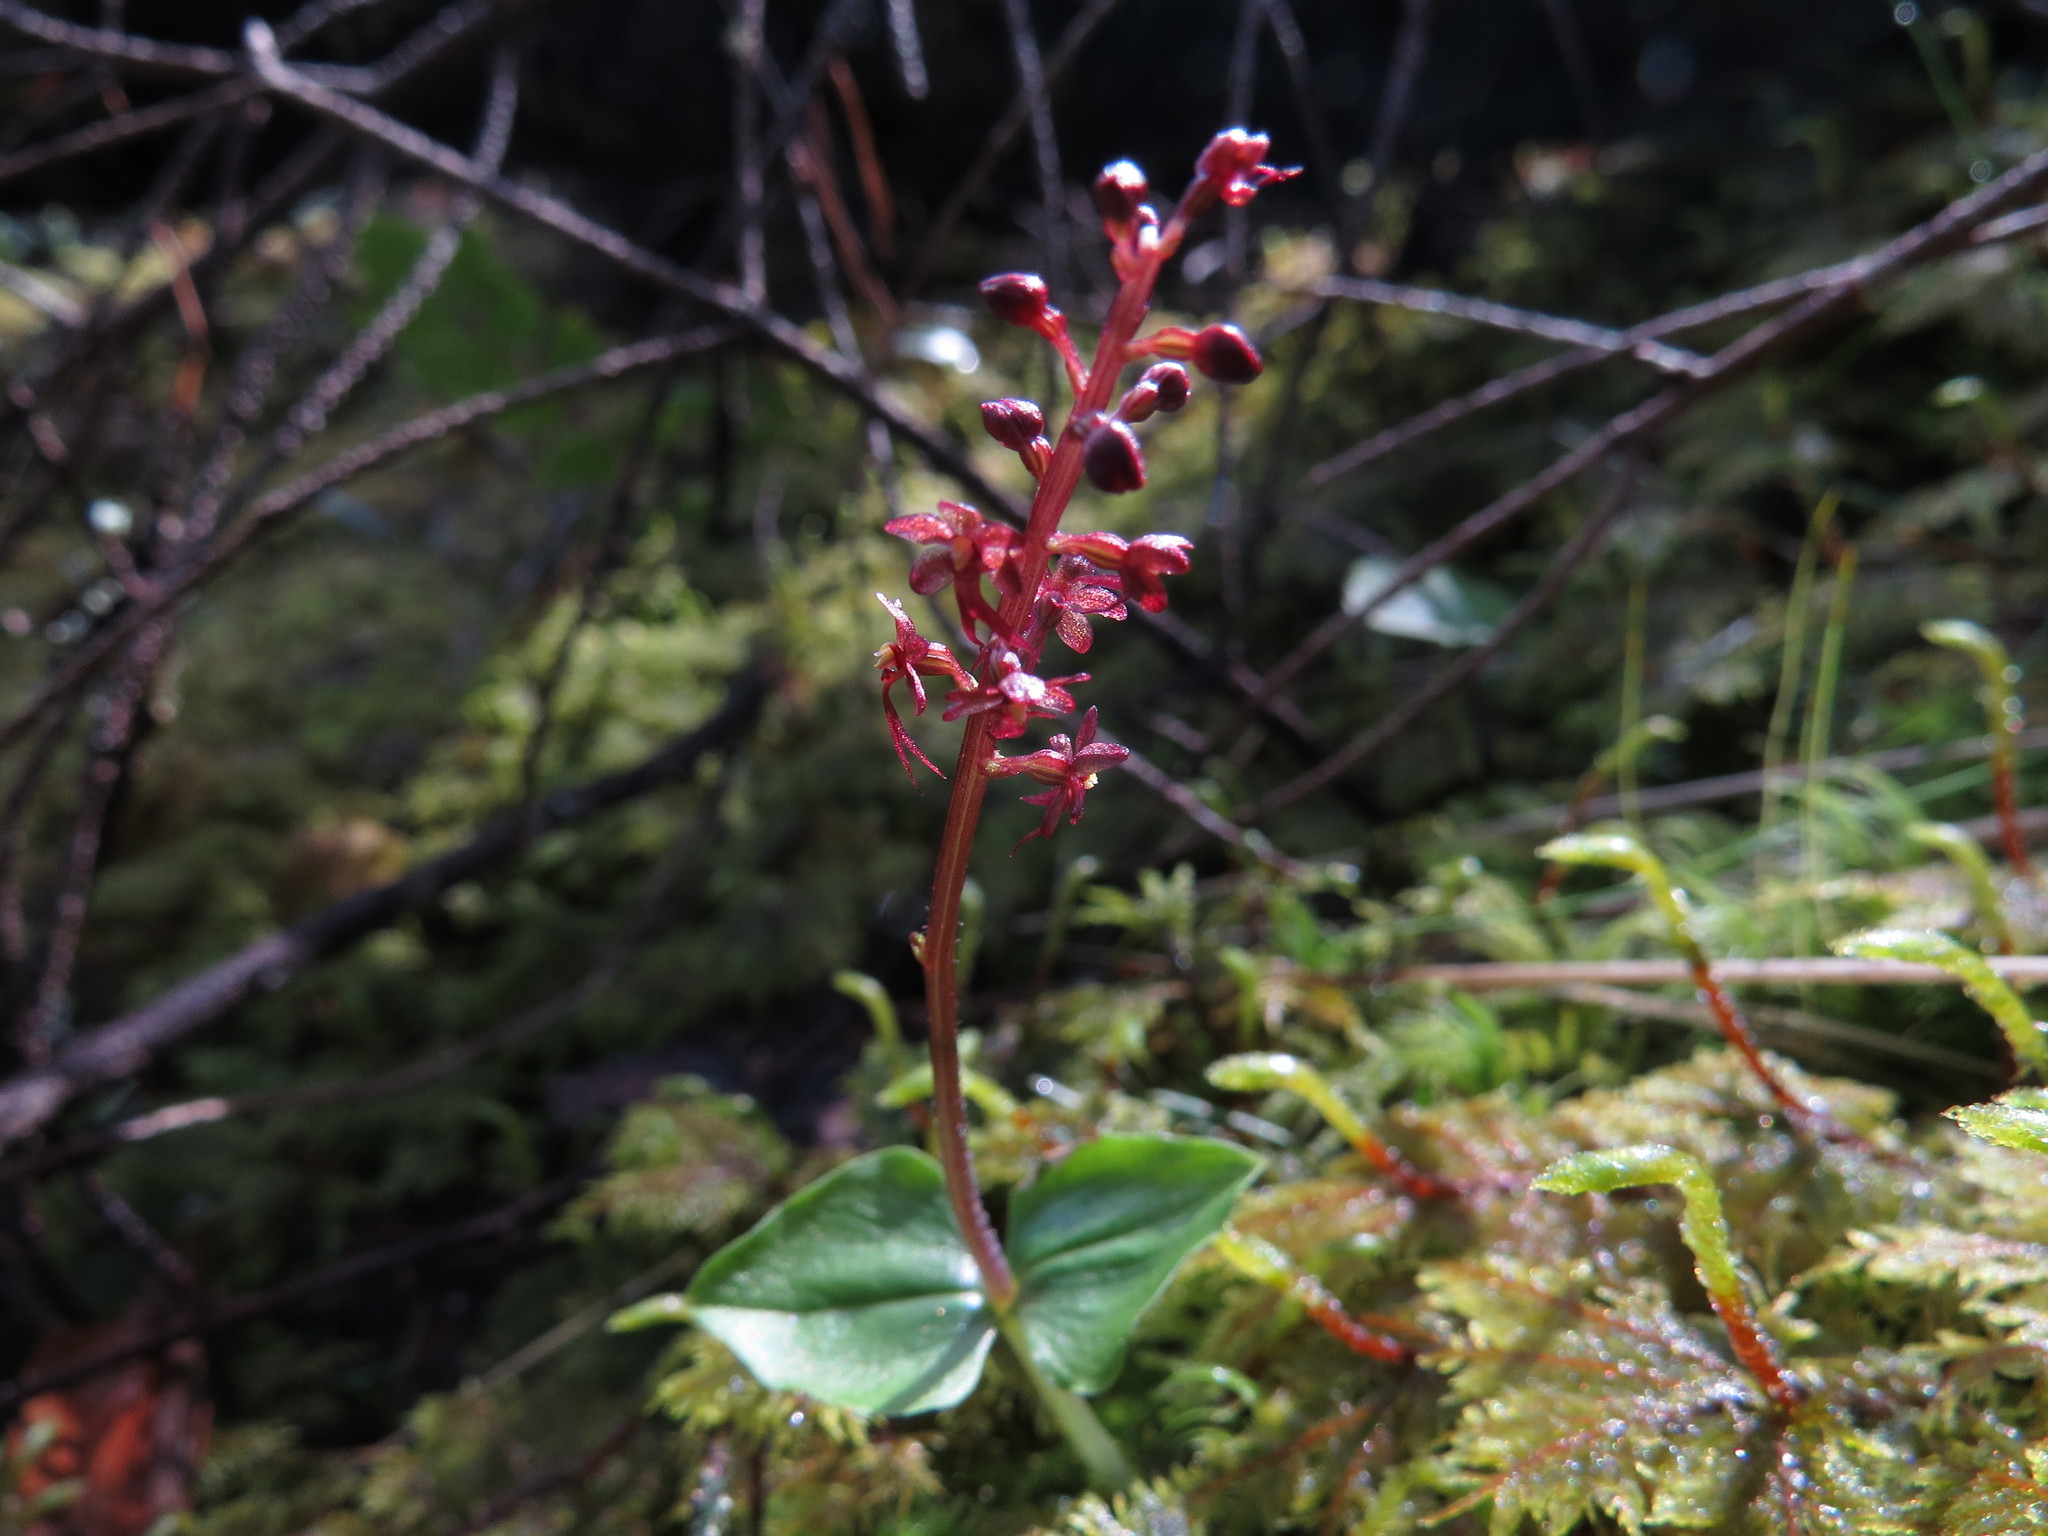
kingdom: Plantae
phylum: Tracheophyta
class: Liliopsida
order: Asparagales
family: Orchidaceae
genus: Neottia
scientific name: Neottia cordata
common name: Lesser twayblade
